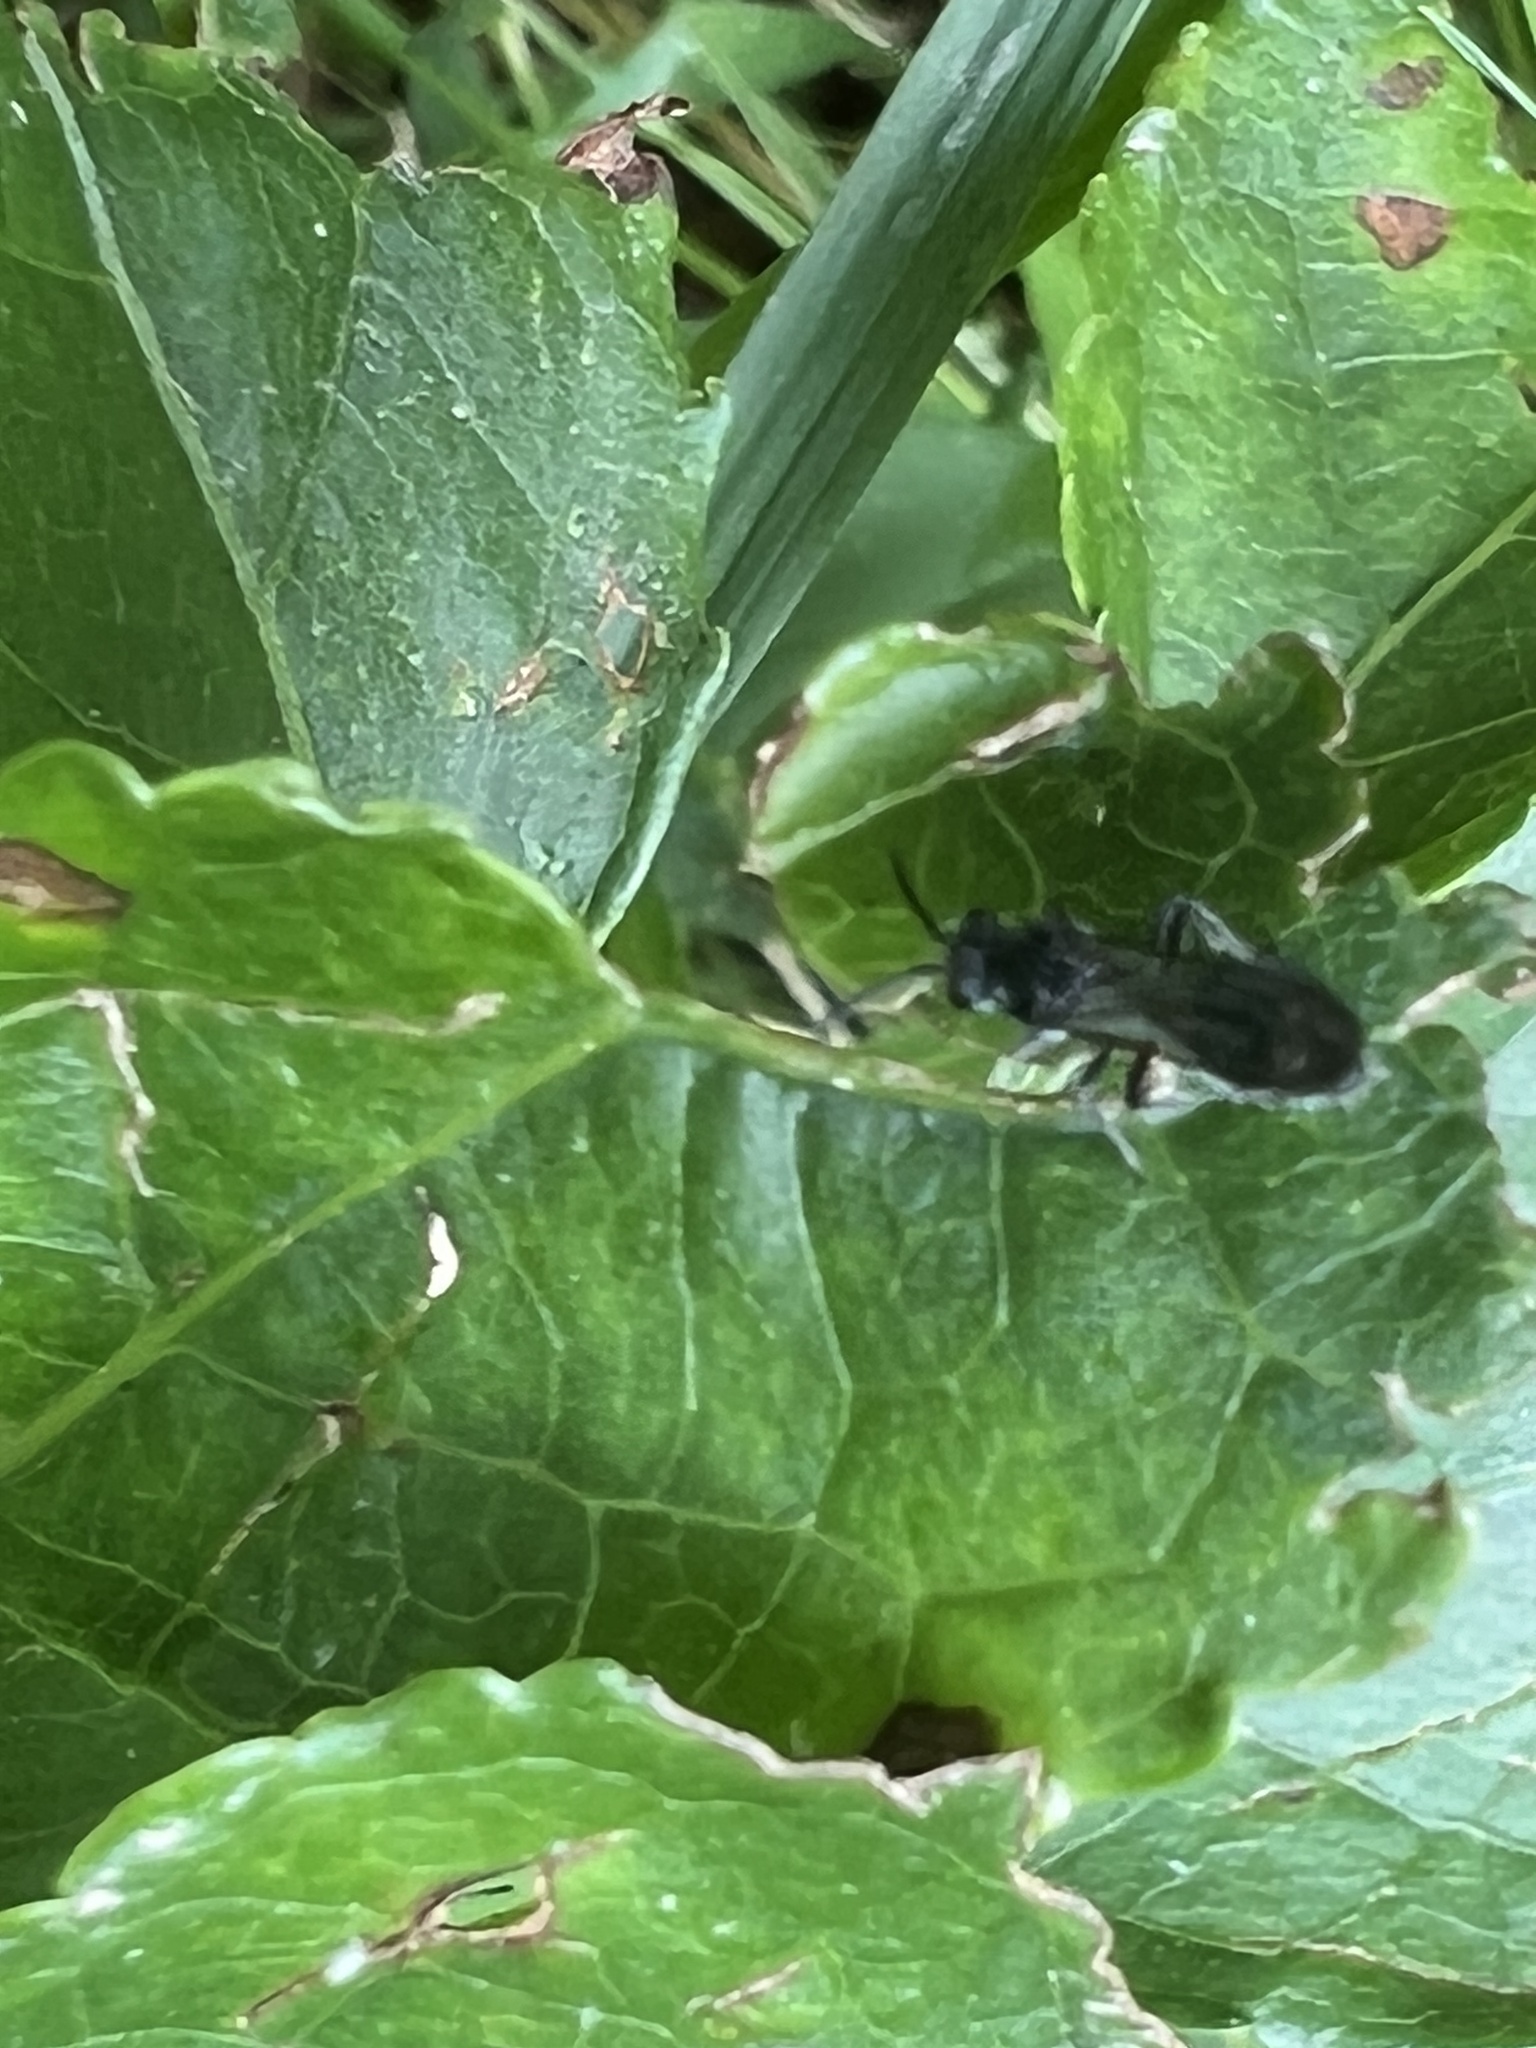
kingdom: Animalia
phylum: Arthropoda
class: Insecta
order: Hymenoptera
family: Mutillidae
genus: Pseudomethoca
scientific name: Pseudomethoca
